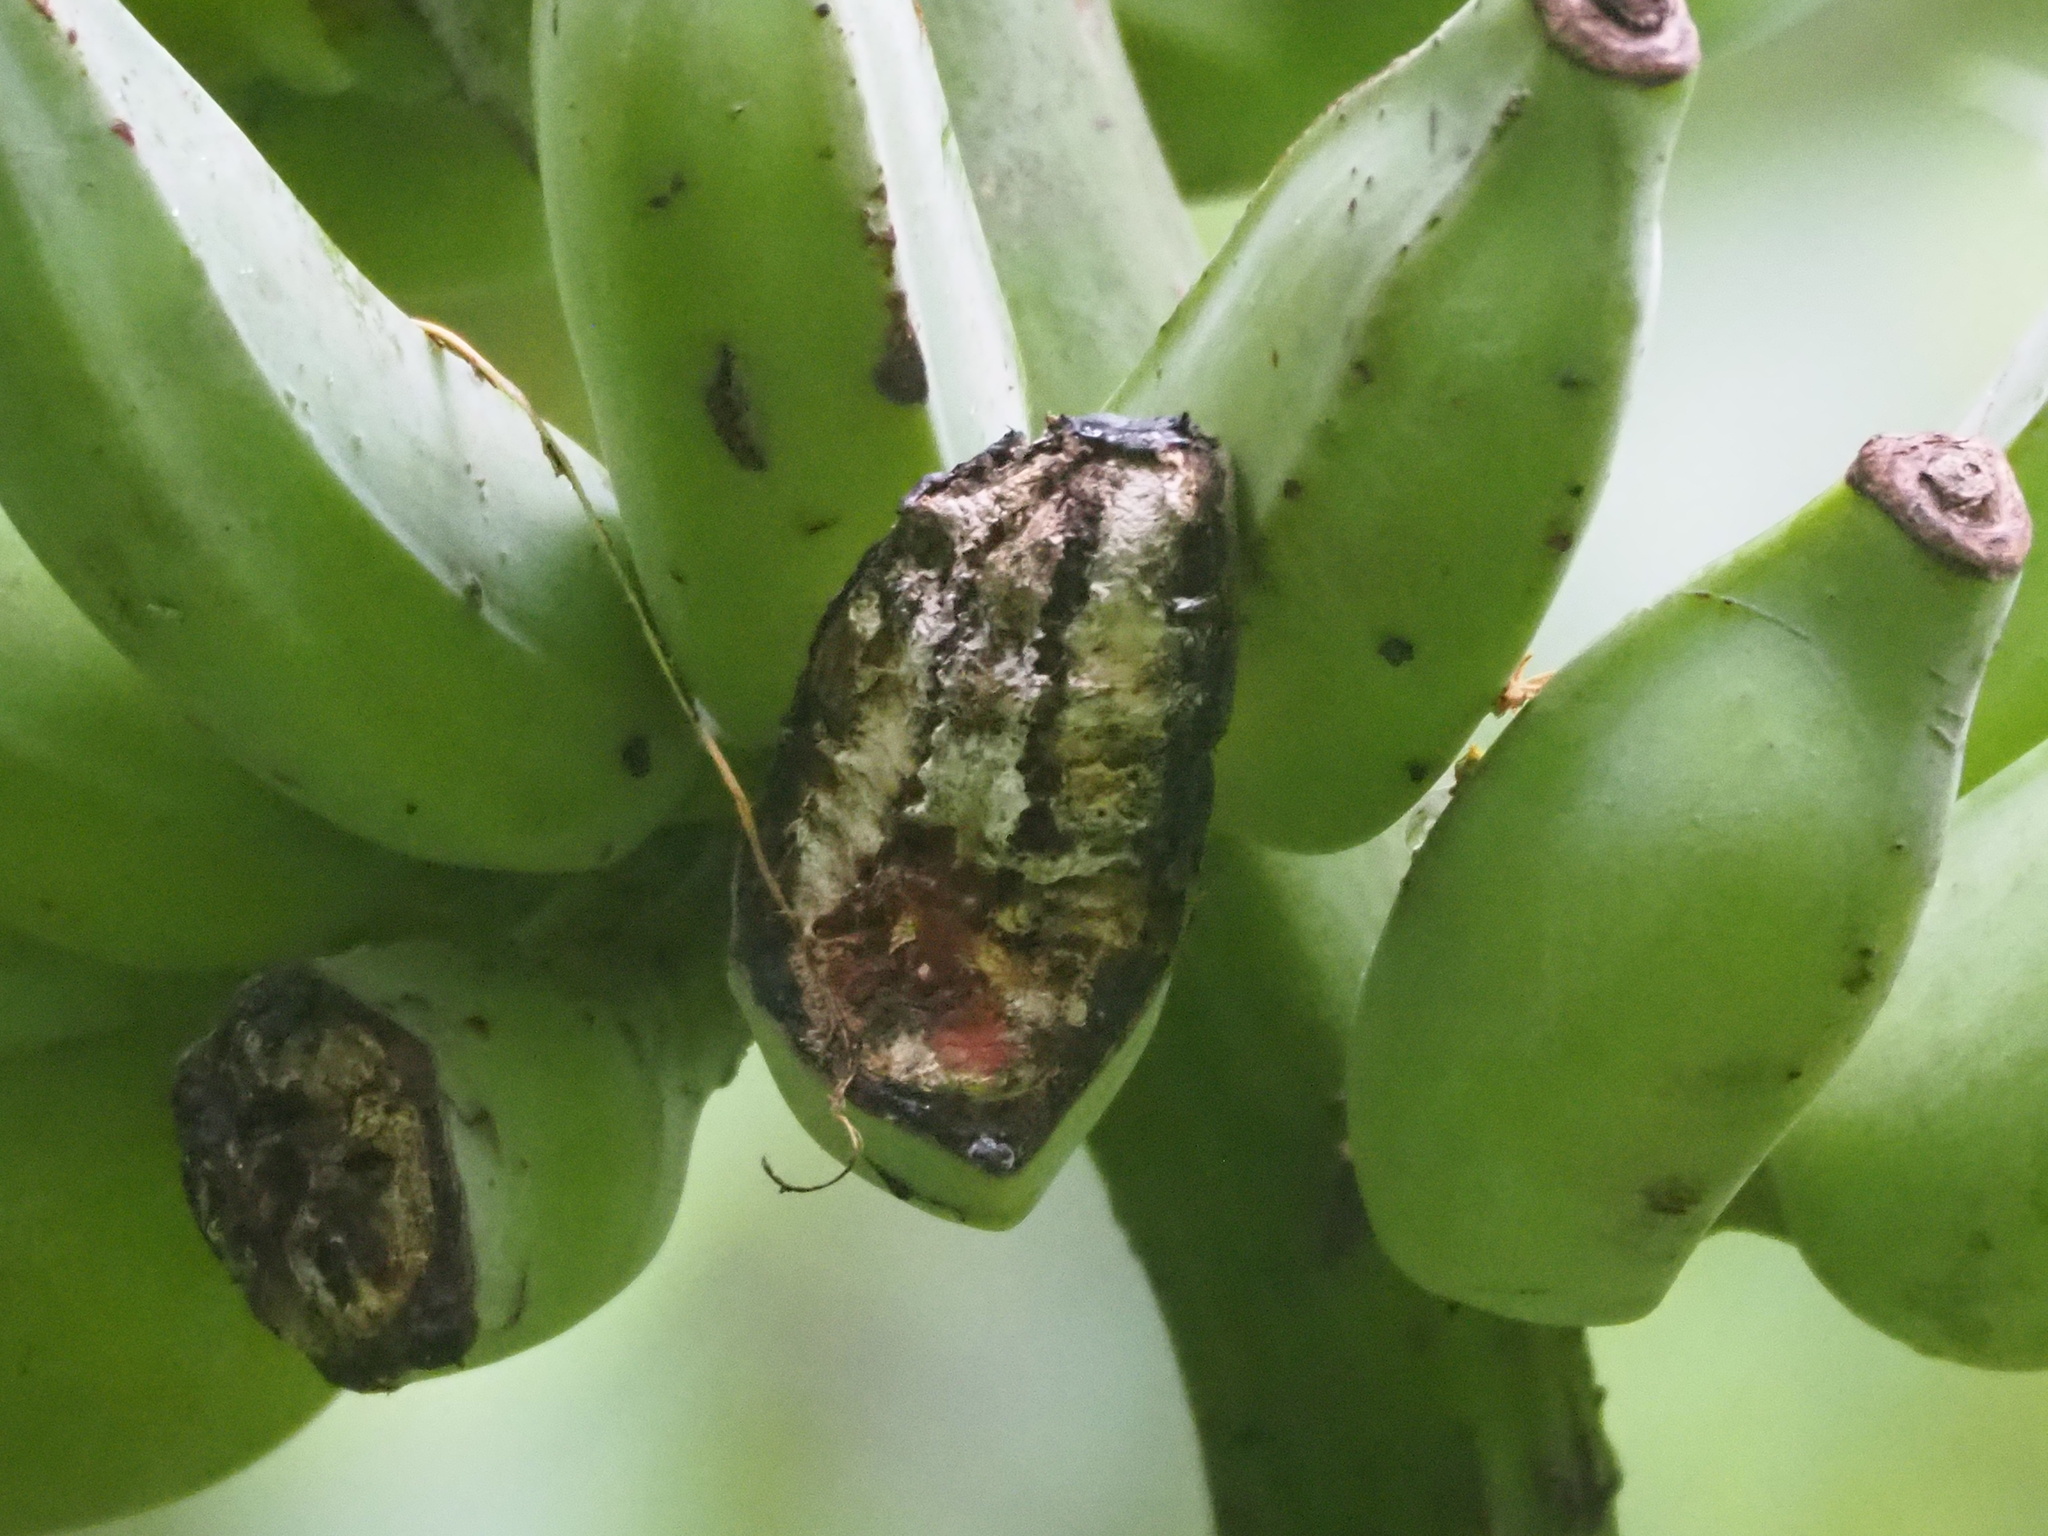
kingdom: Plantae
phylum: Tracheophyta
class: Liliopsida
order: Zingiberales
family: Musaceae
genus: Musa
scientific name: Musa balbisiana
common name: Plantain
